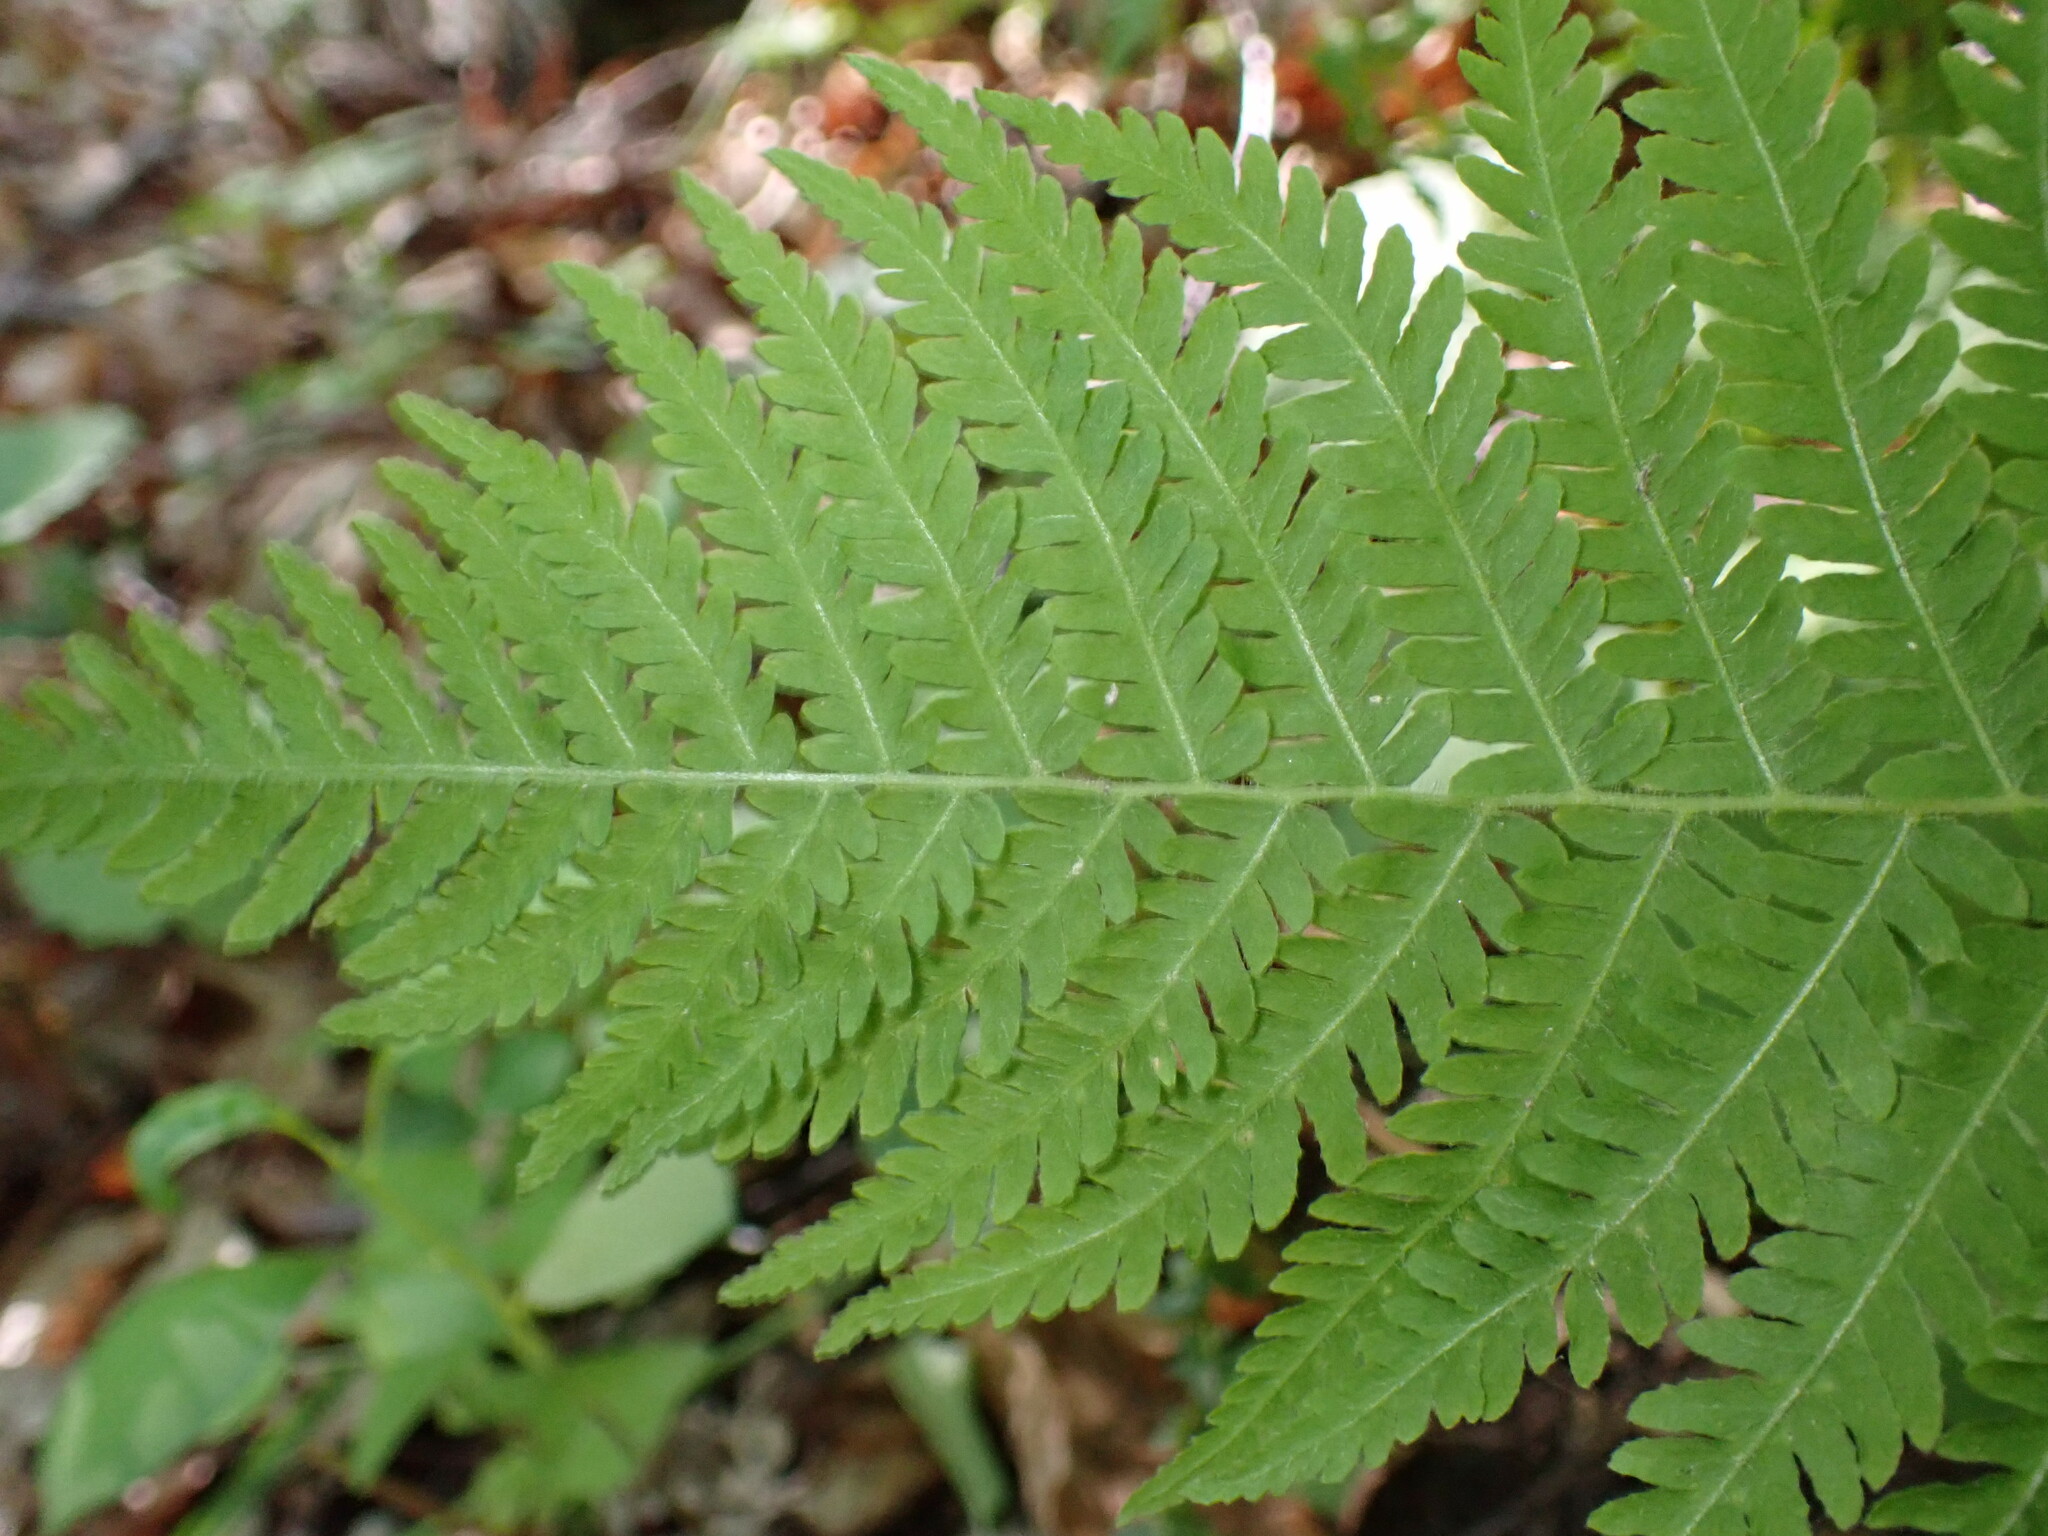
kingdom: Plantae
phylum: Tracheophyta
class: Polypodiopsida
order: Polypodiales
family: Thelypteridaceae
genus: Amauropelta
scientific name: Amauropelta noveboracensis
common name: New york fern
